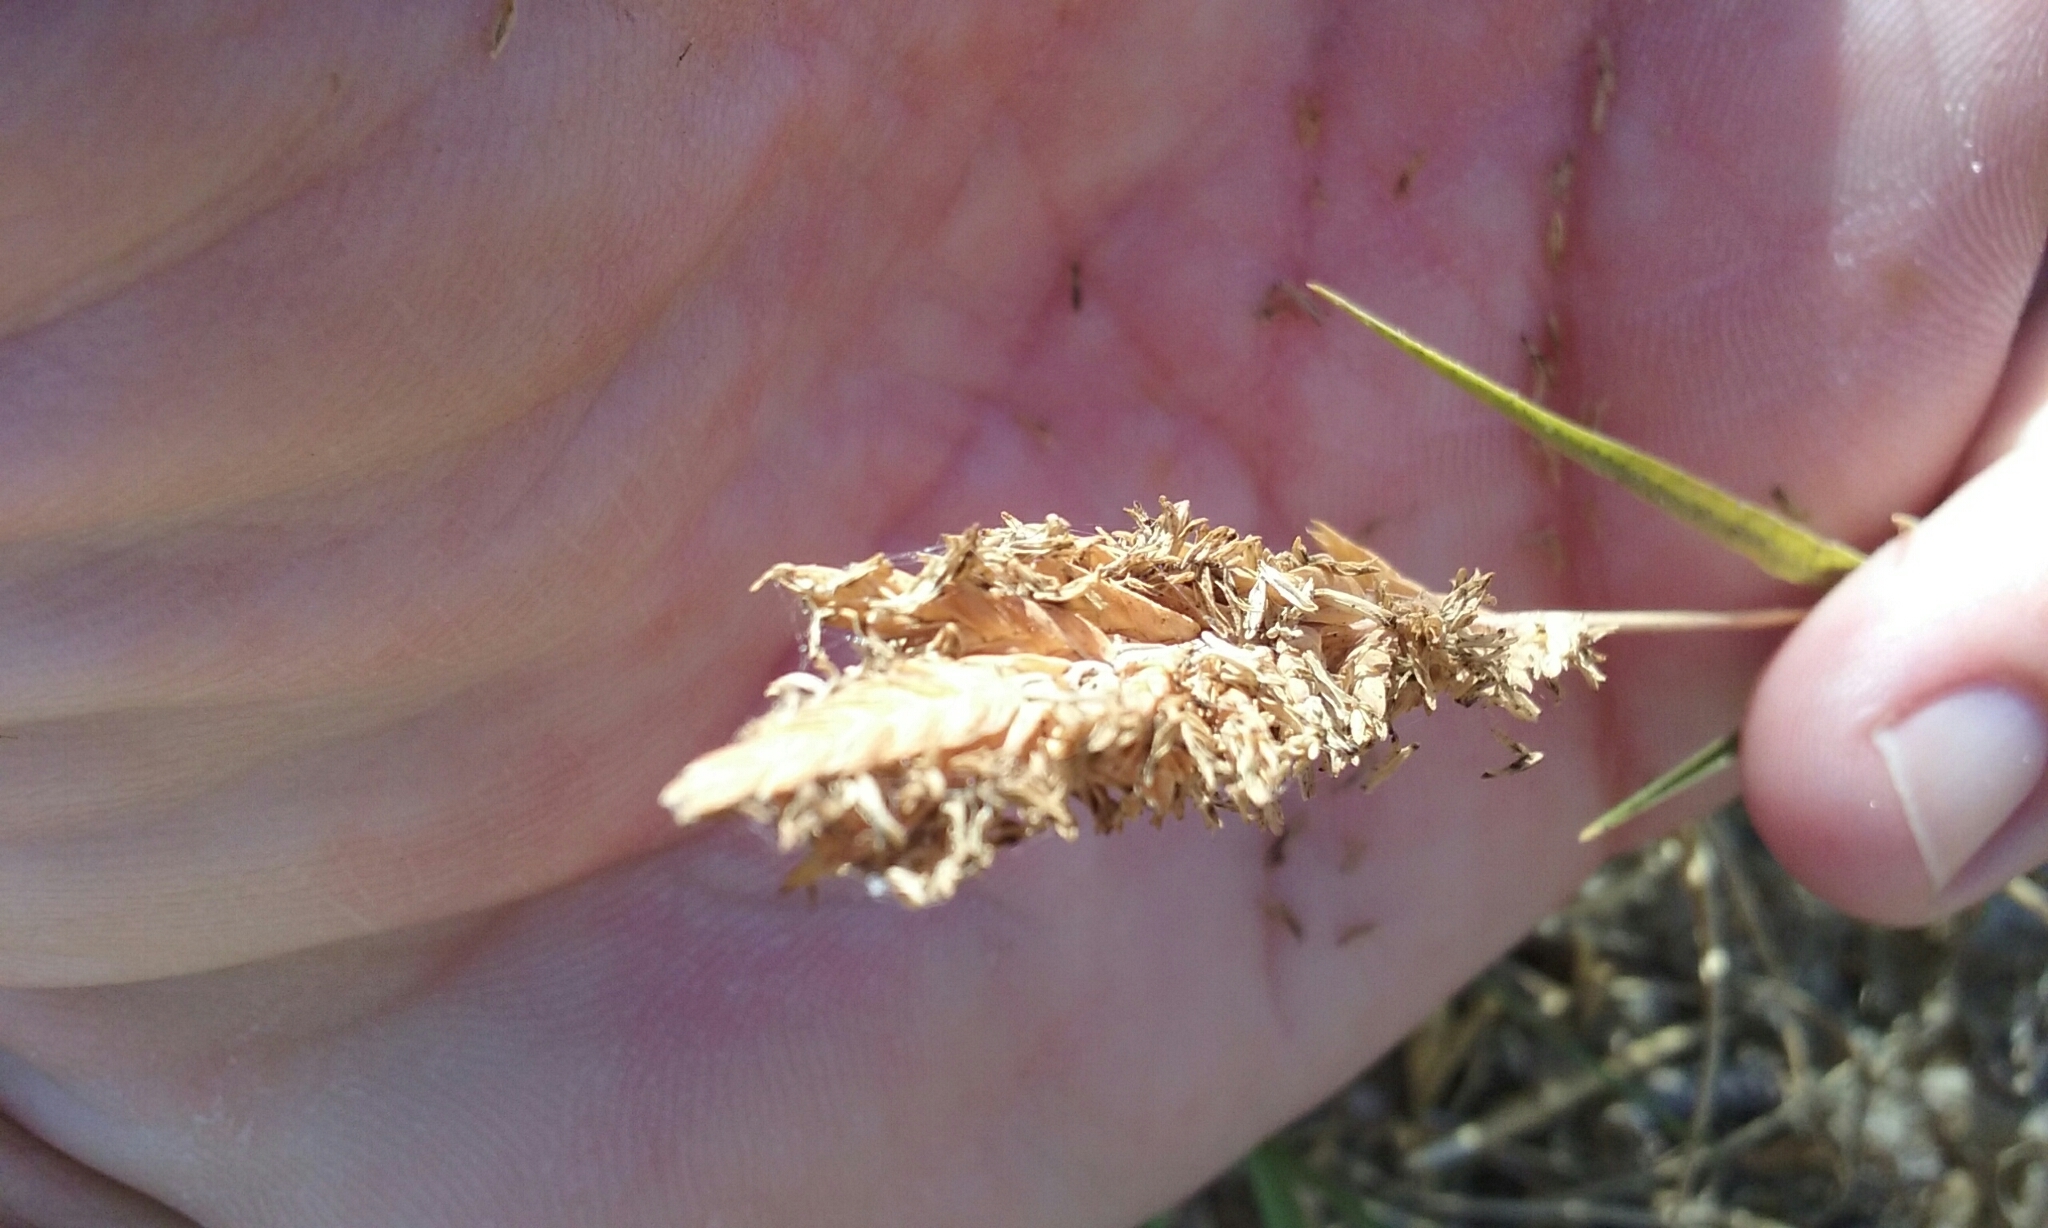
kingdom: Plantae
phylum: Tracheophyta
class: Liliopsida
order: Poales
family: Poaceae
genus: Distichlis
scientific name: Distichlis spicata
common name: Saltgrass
